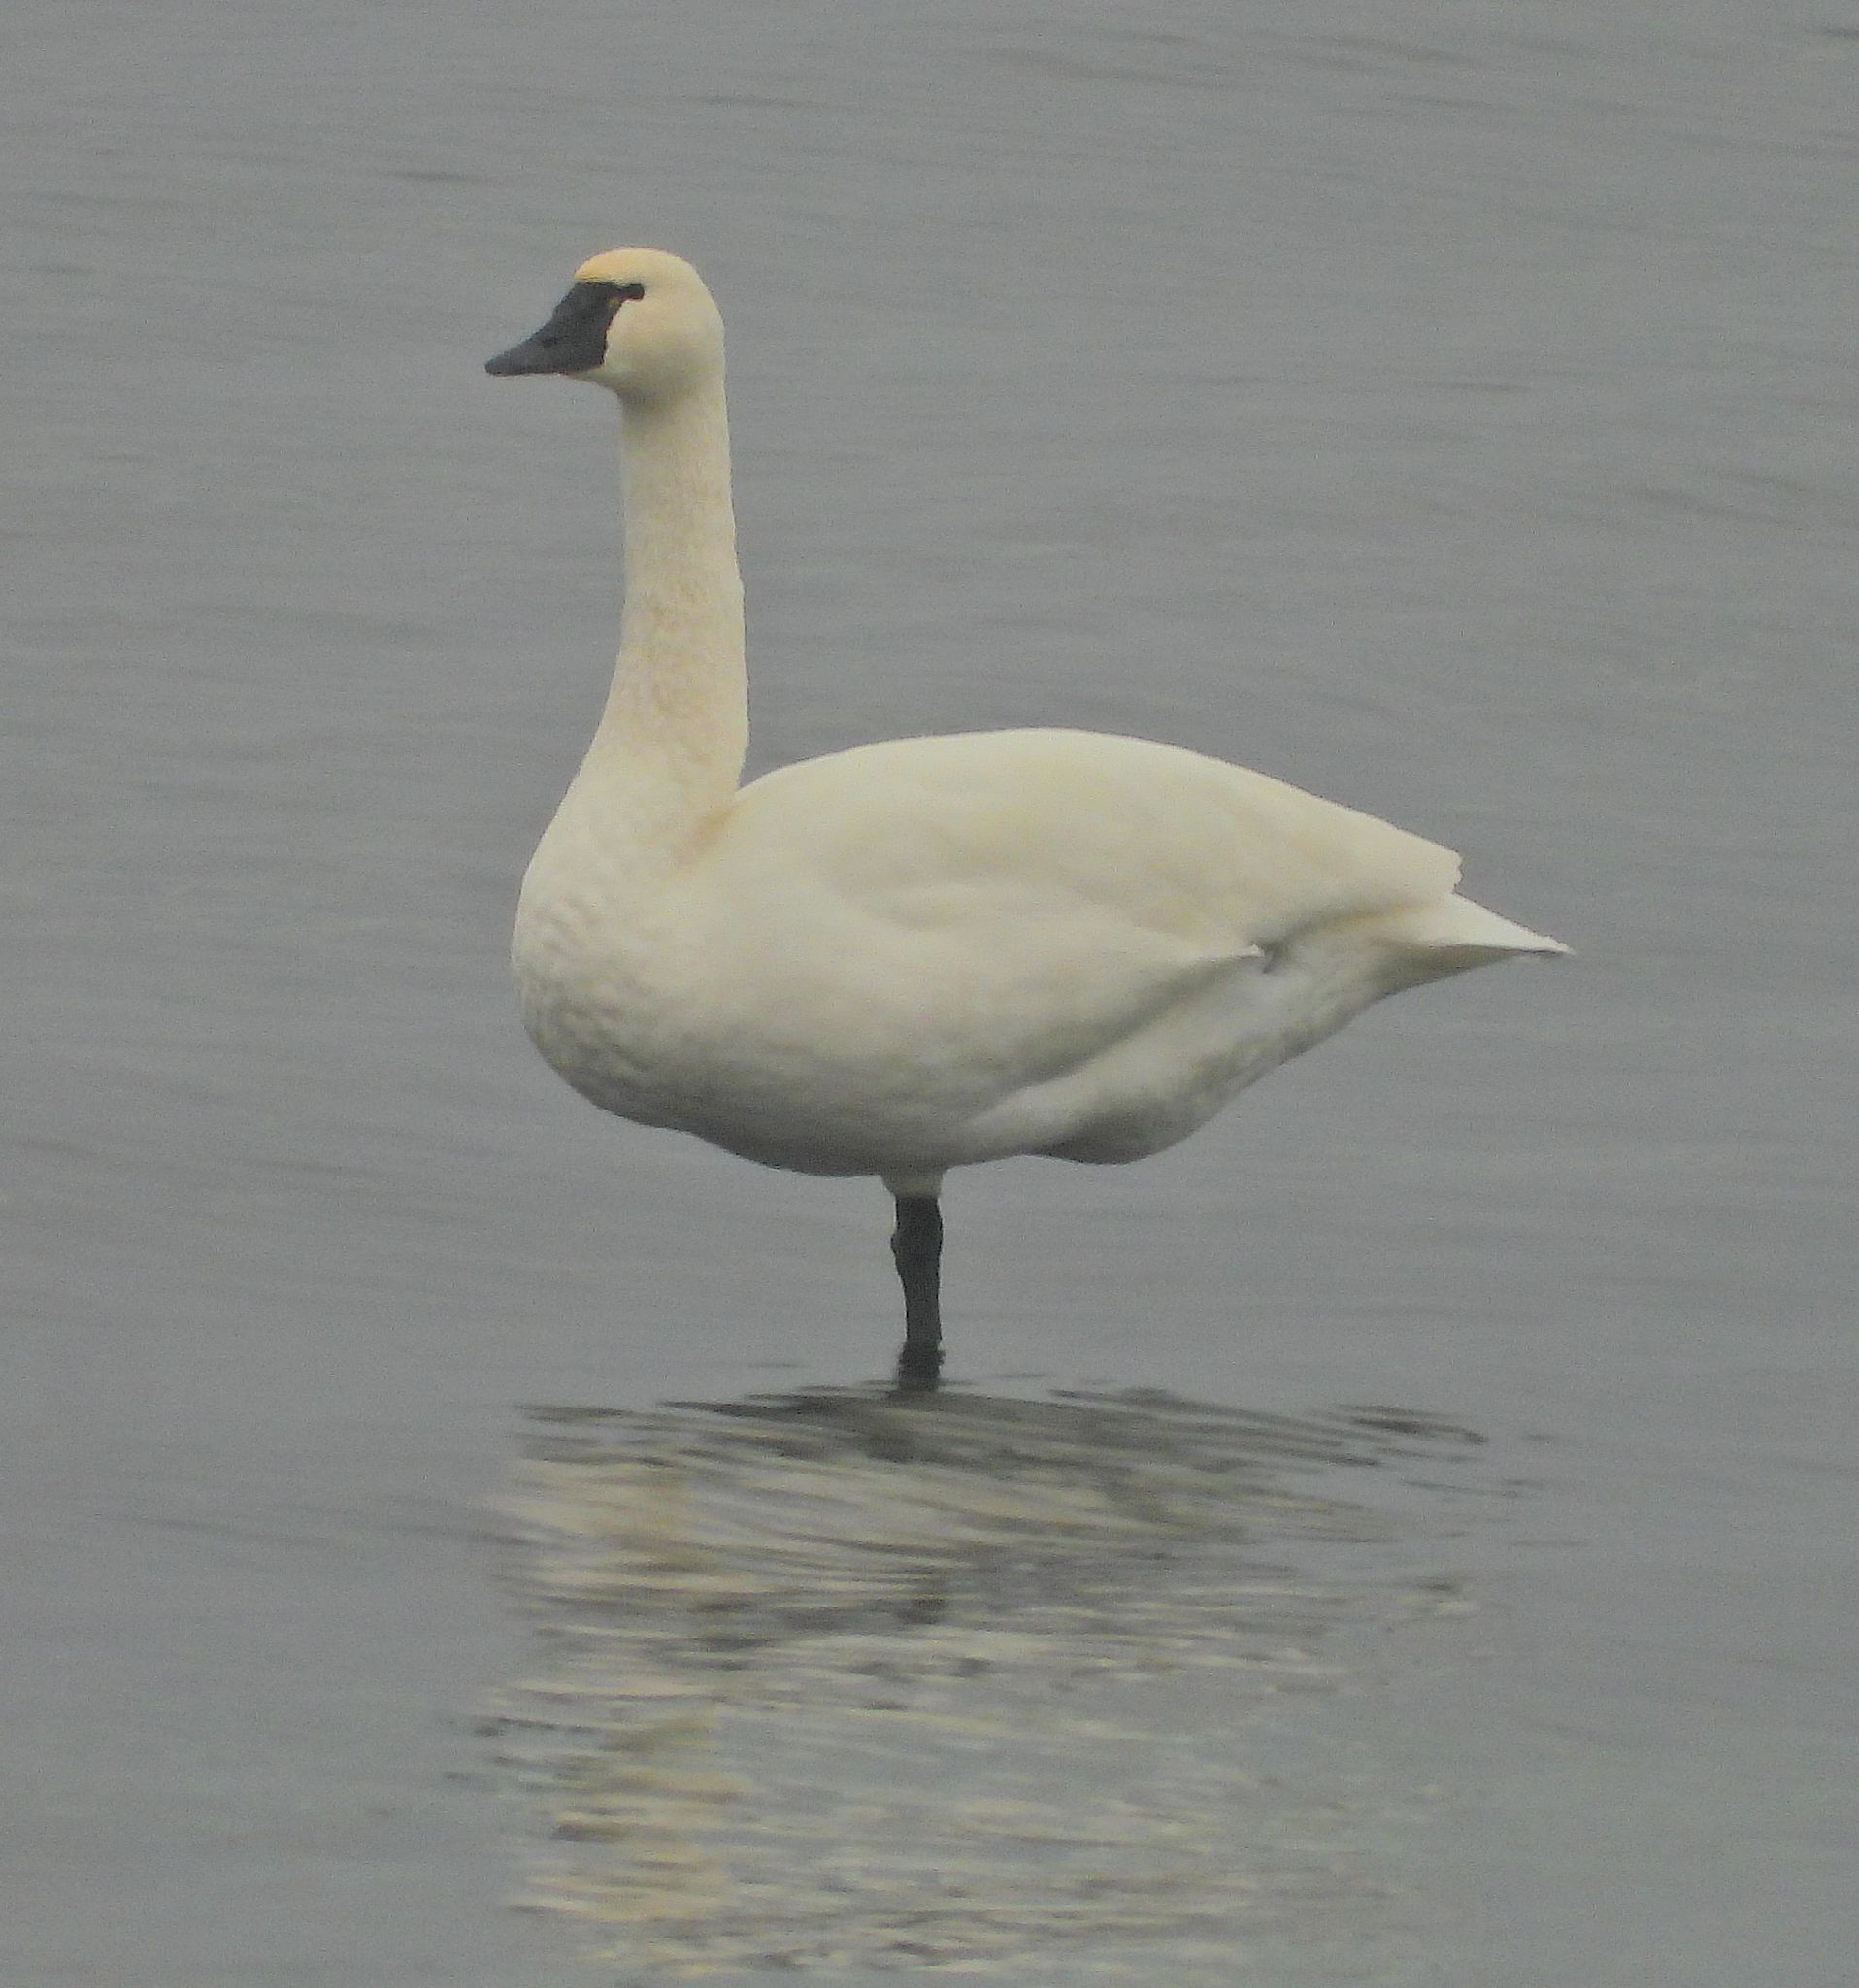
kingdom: Animalia
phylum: Chordata
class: Aves
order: Anseriformes
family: Anatidae
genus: Cygnus
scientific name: Cygnus columbianus
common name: Tundra swan
